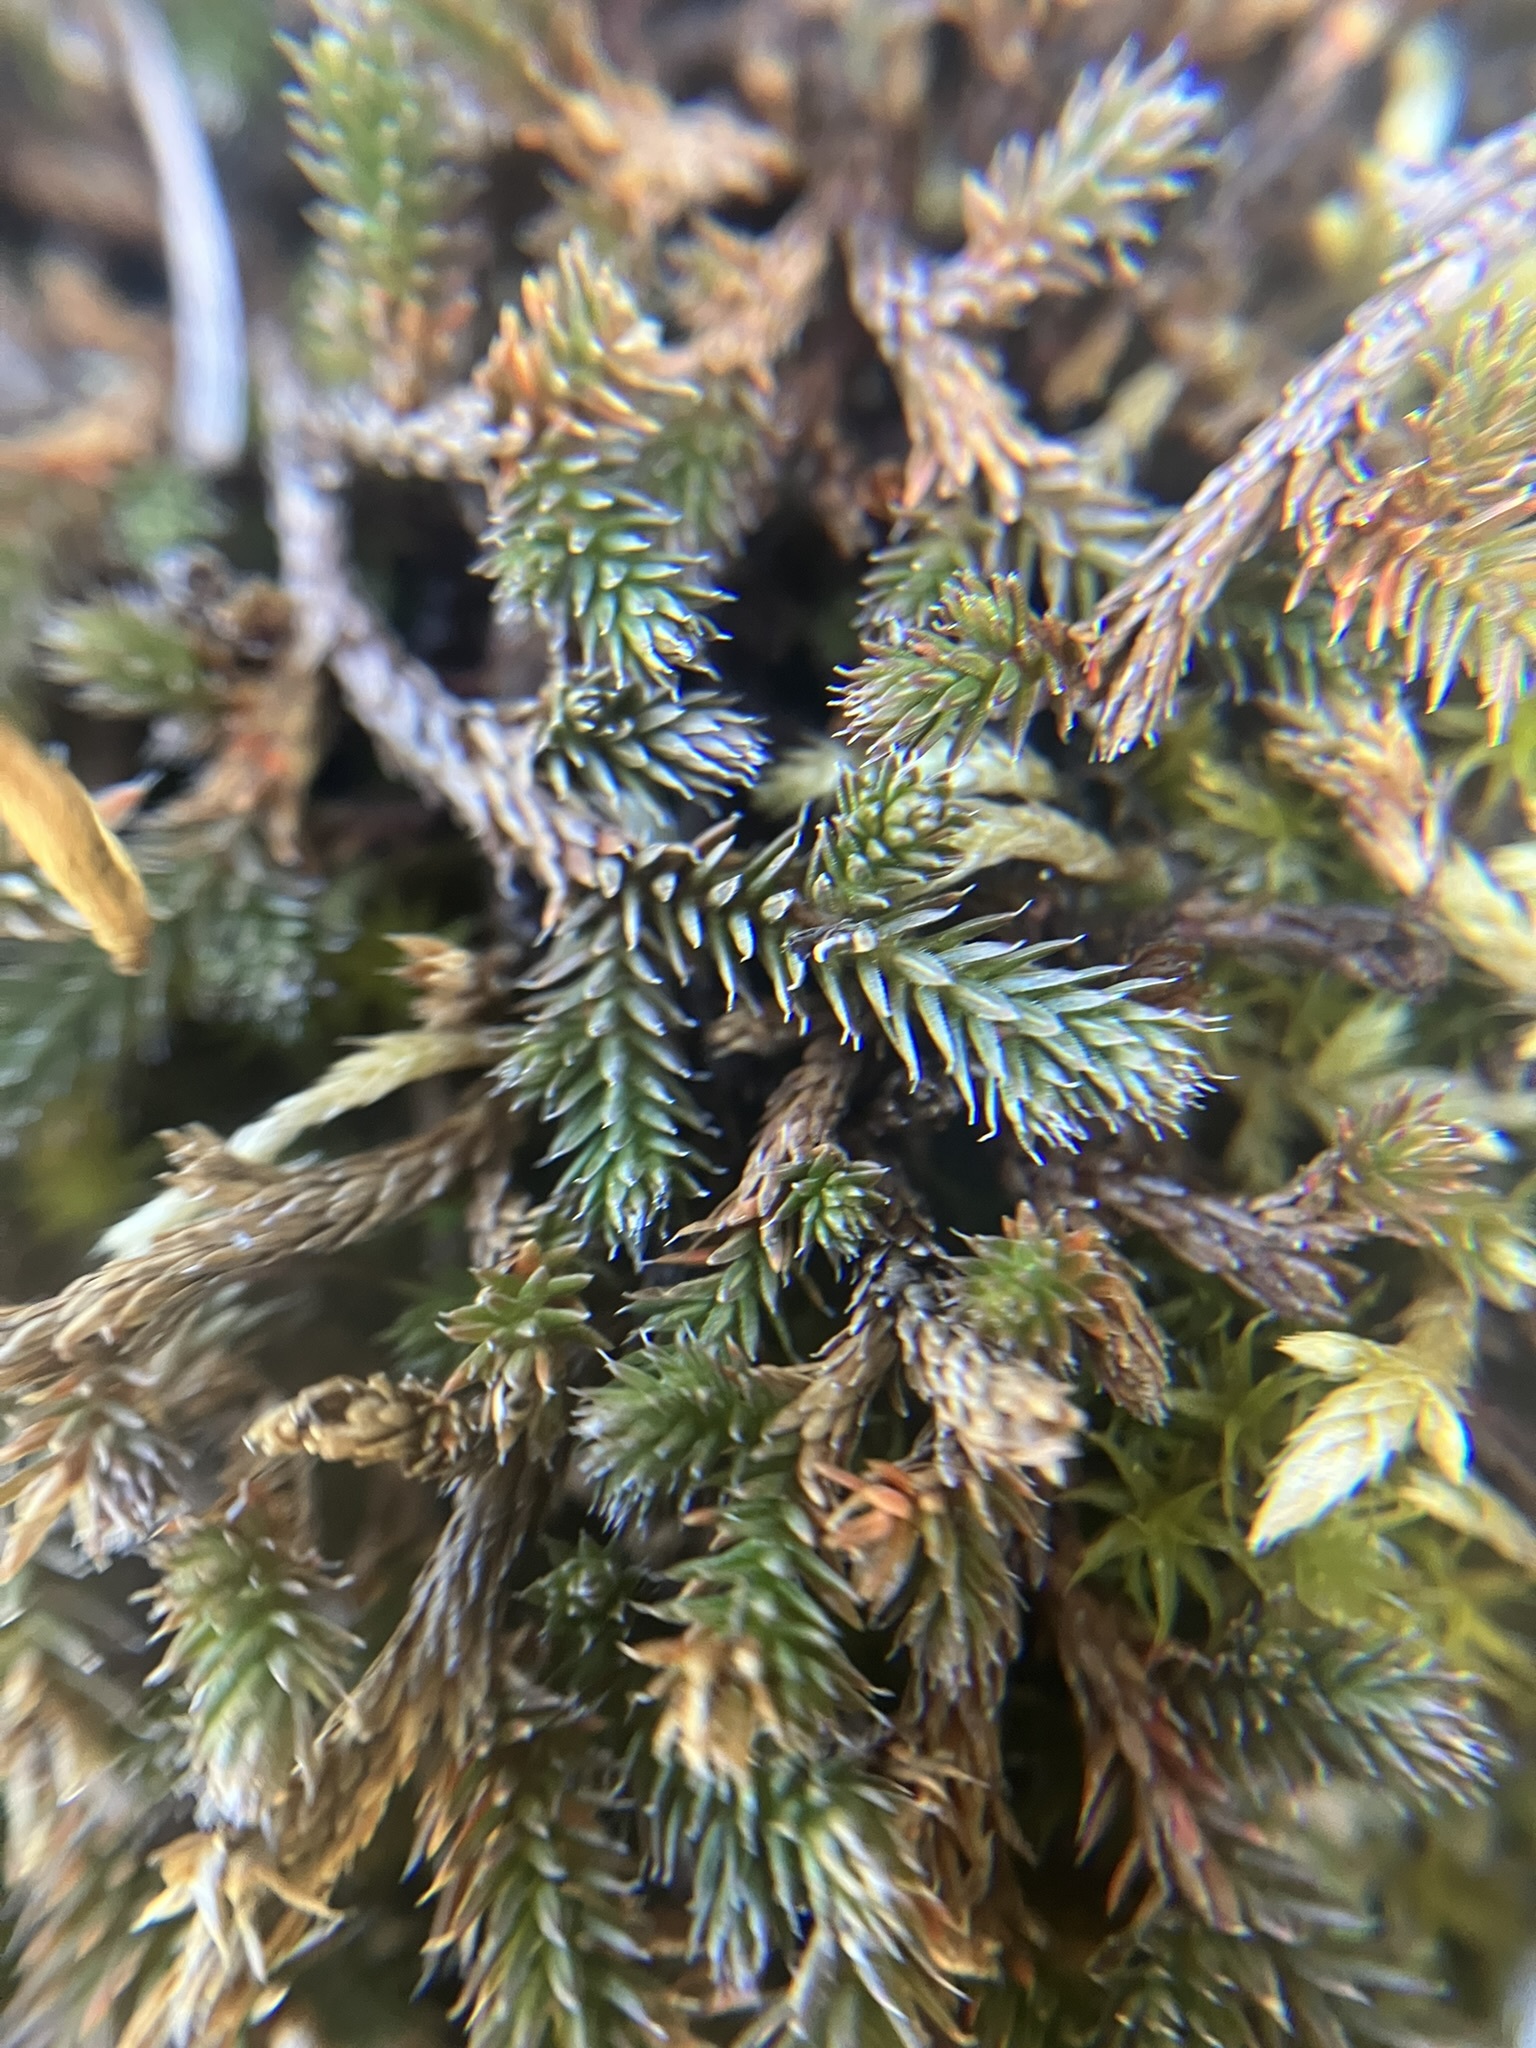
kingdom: Plantae
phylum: Tracheophyta
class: Lycopodiopsida
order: Selaginellales
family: Selaginellaceae
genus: Selaginella
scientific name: Selaginella wallacei
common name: Wallace's selaginella
